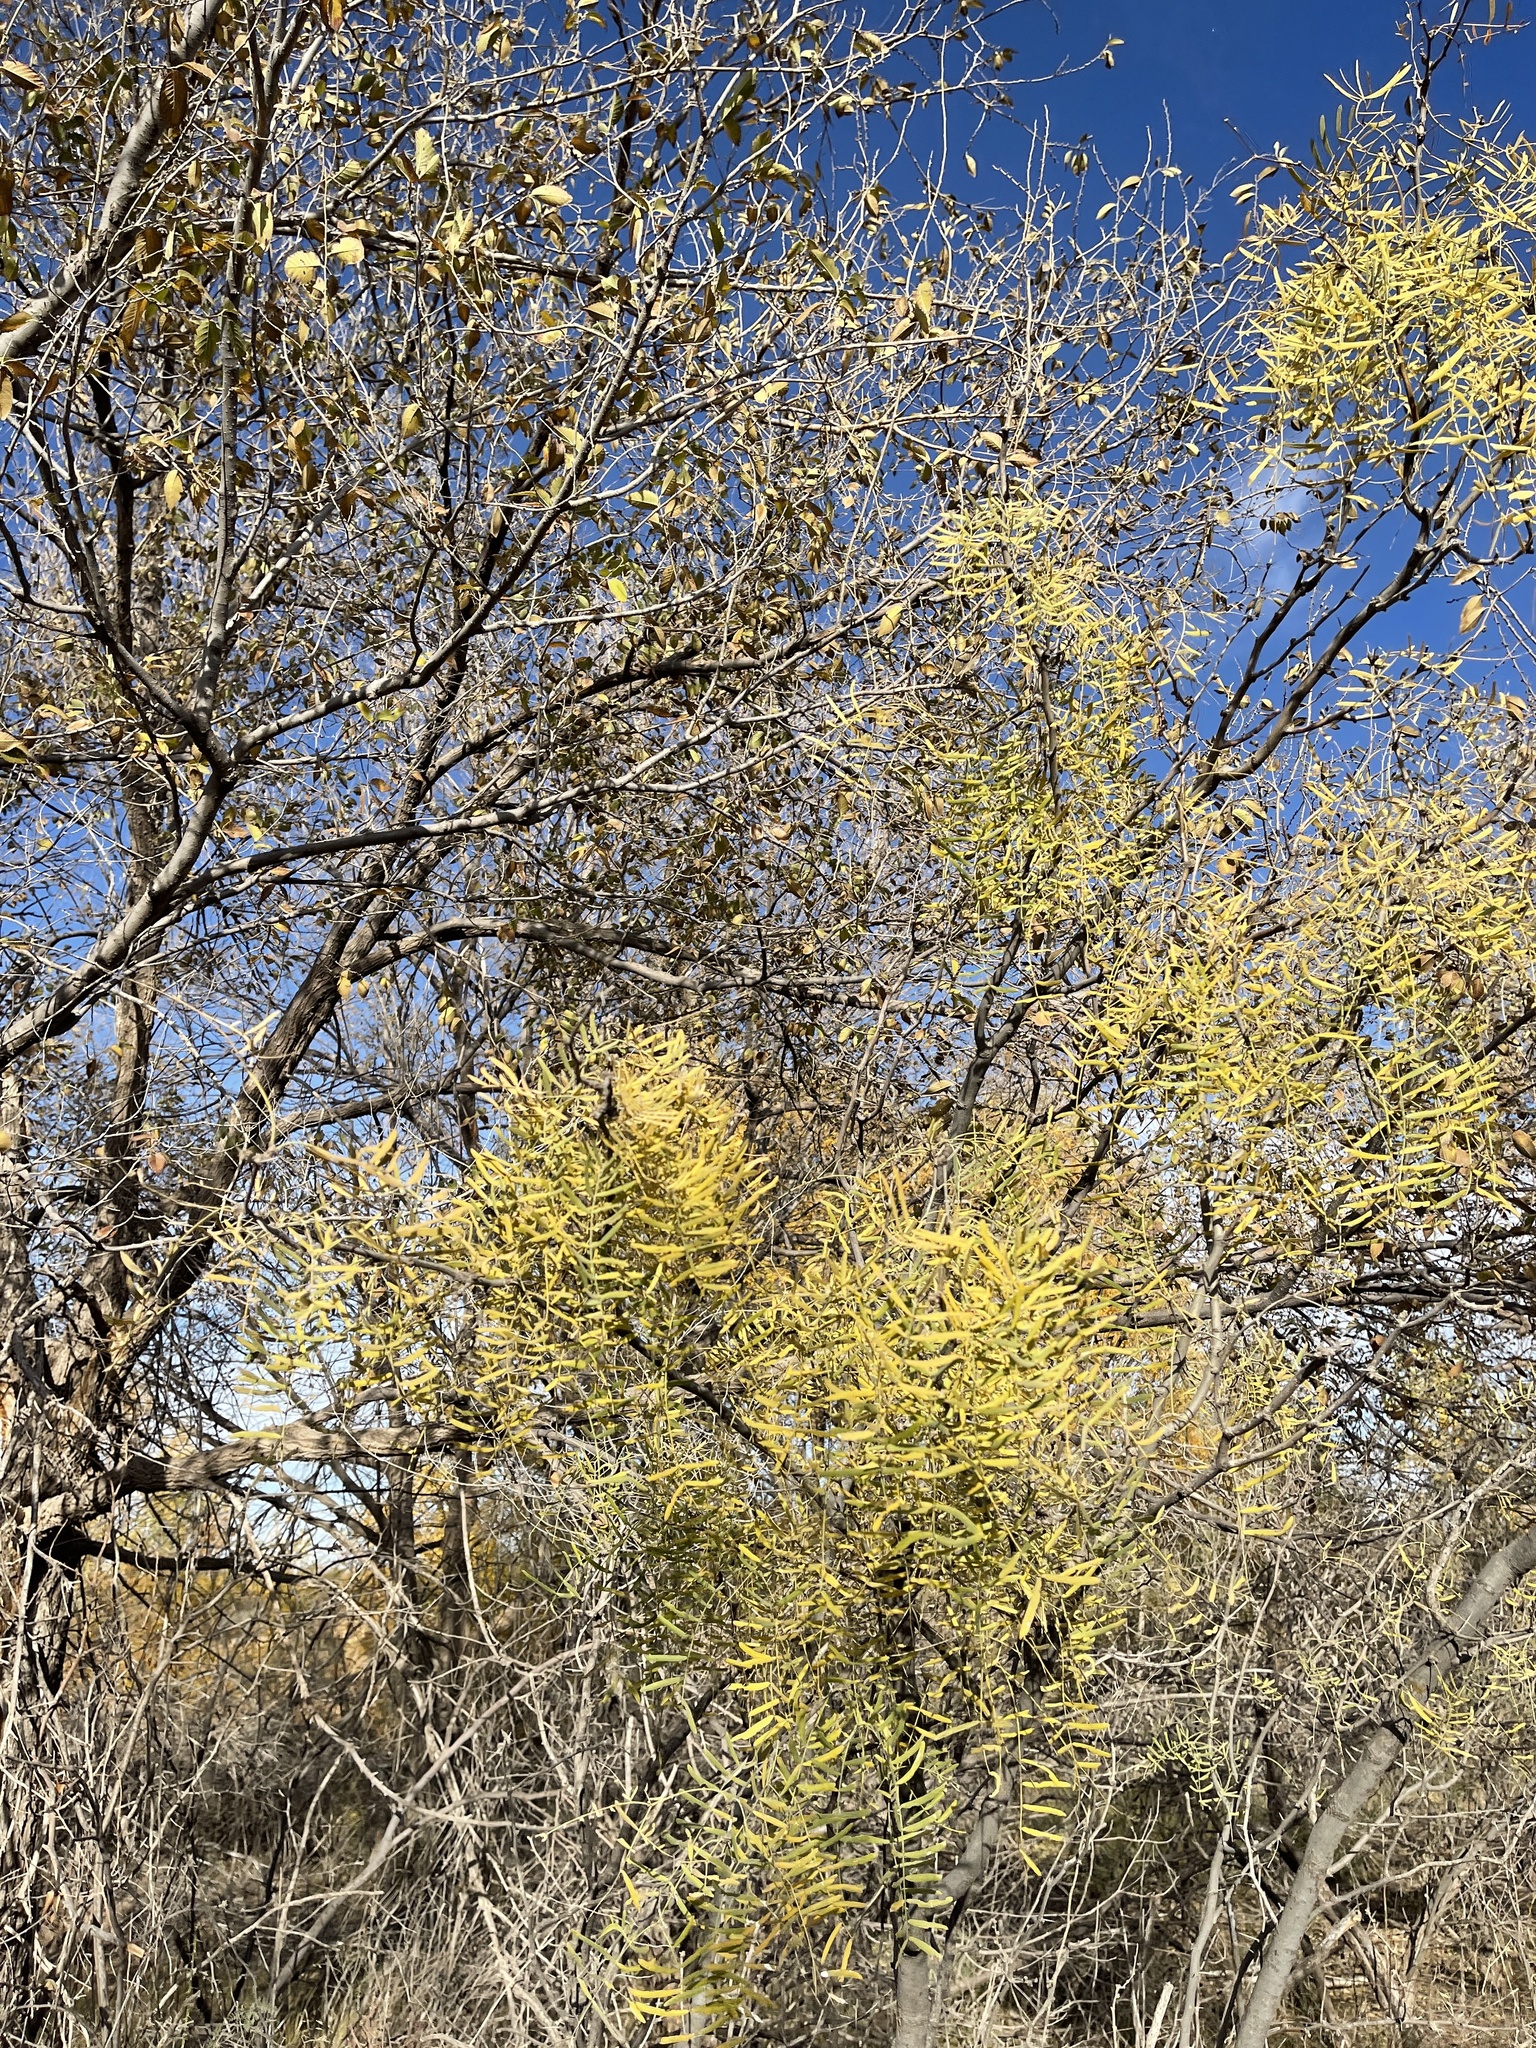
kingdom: Plantae
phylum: Tracheophyta
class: Magnoliopsida
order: Fabales
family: Fabaceae
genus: Prosopis
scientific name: Prosopis glandulosa
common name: Honey mesquite
